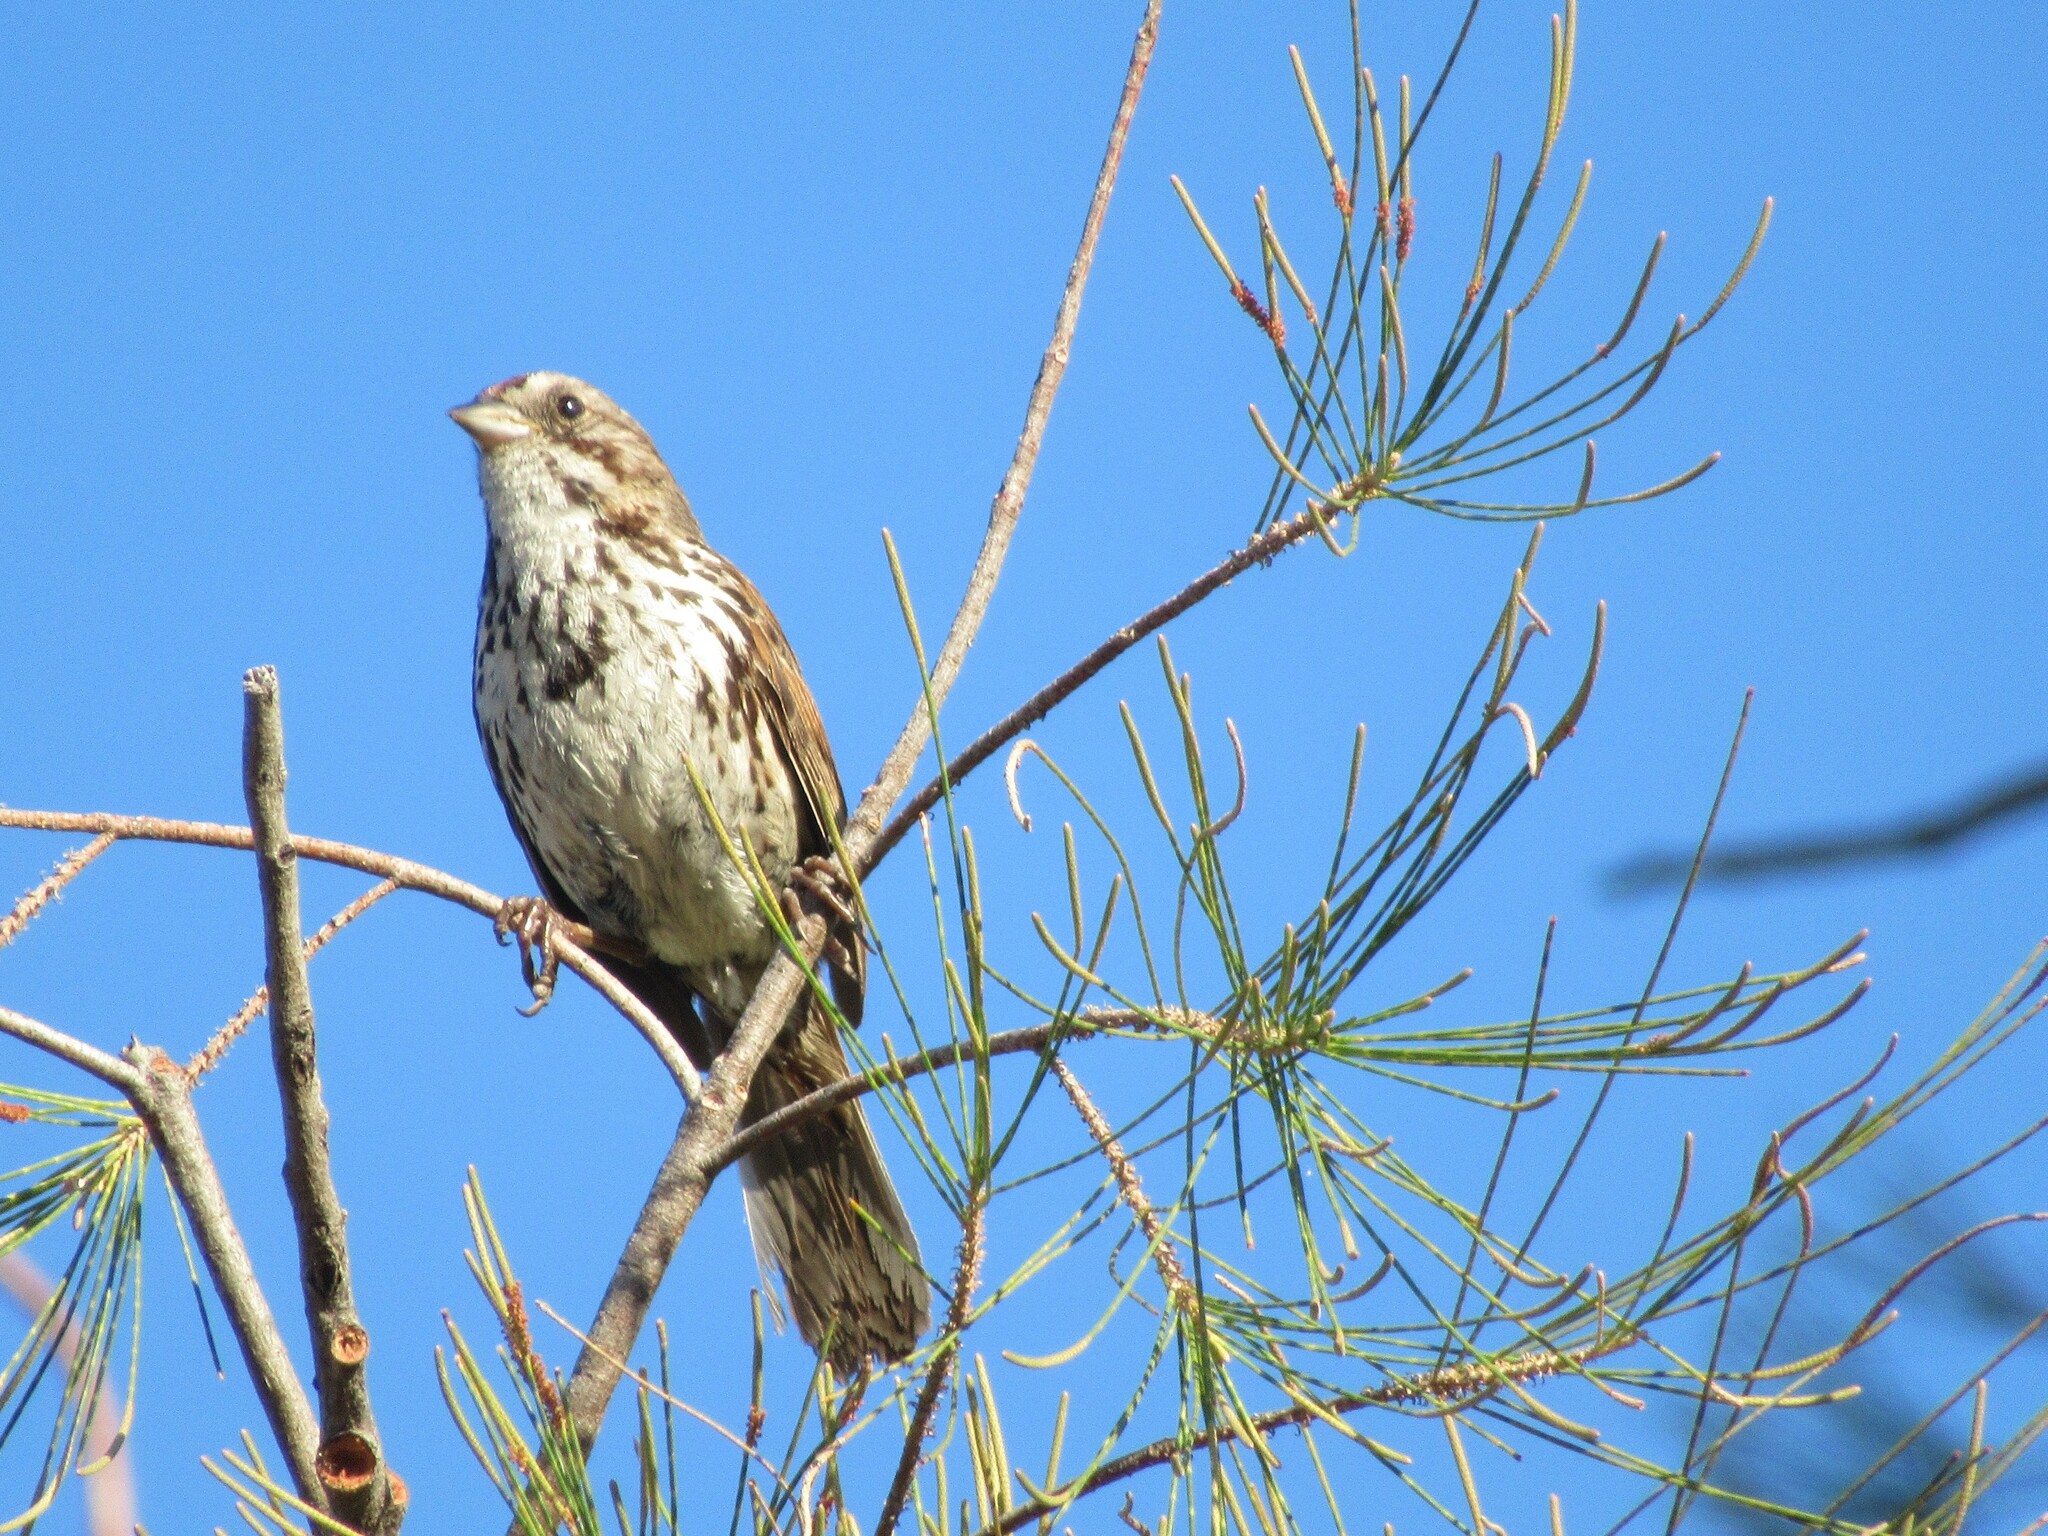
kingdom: Animalia
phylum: Chordata
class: Aves
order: Passeriformes
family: Passerellidae
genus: Melospiza
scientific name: Melospiza melodia
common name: Song sparrow
